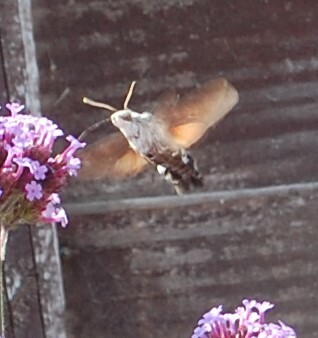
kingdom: Animalia
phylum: Arthropoda
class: Insecta
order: Lepidoptera
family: Sphingidae
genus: Macroglossum
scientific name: Macroglossum stellatarum
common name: Humming-bird hawk-moth
